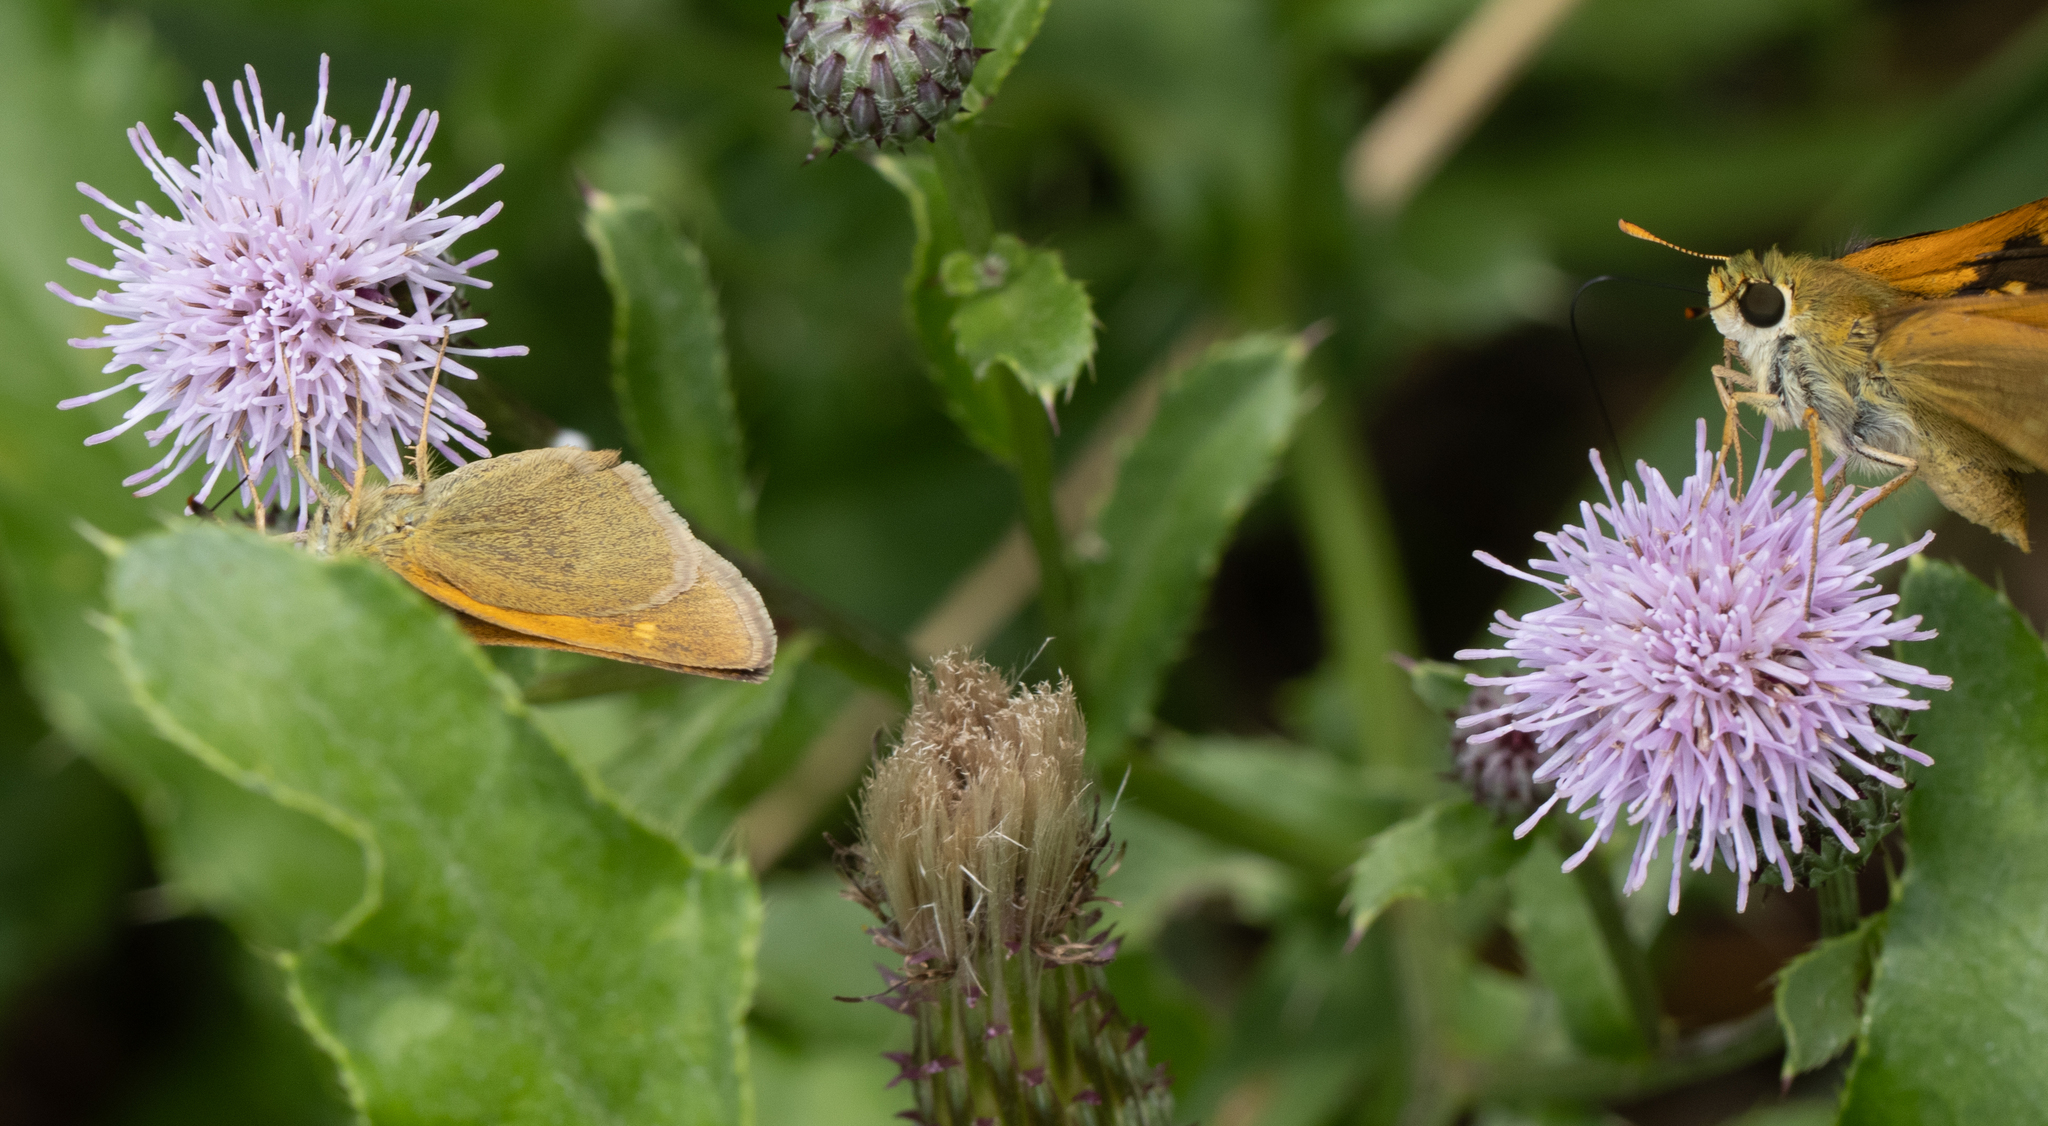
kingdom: Animalia
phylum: Arthropoda
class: Insecta
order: Lepidoptera
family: Hesperiidae
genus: Polites
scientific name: Polites themistocles
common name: Tawny-edged skipper
